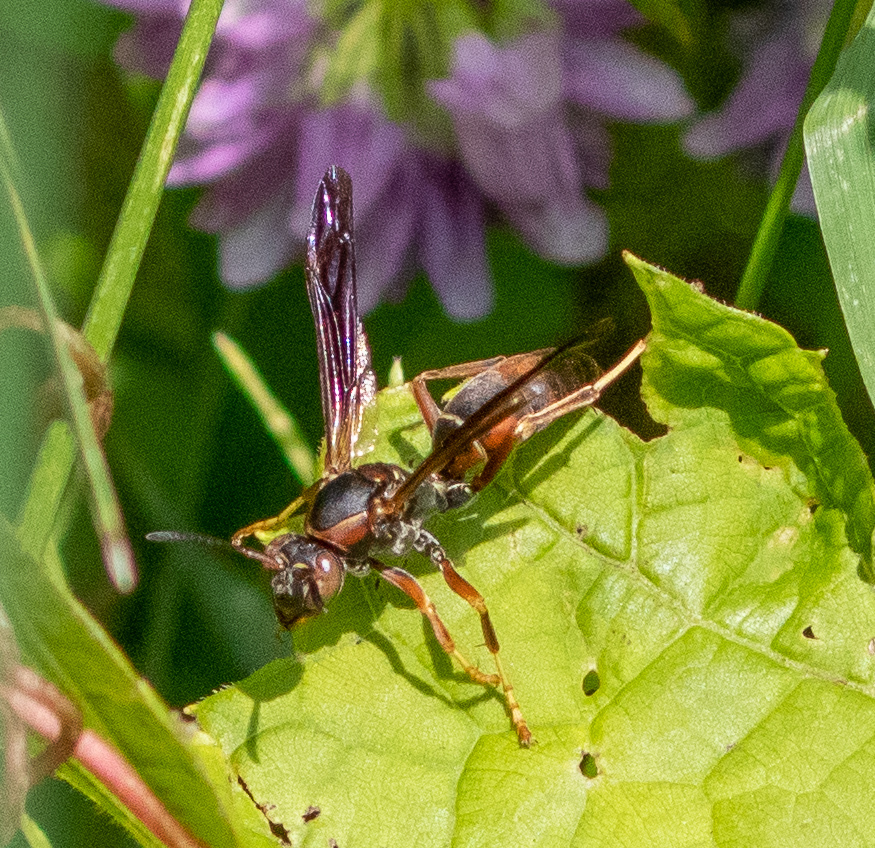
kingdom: Animalia
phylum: Arthropoda
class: Insecta
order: Hymenoptera
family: Eumenidae
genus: Polistes
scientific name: Polistes fuscatus
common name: Dark paper wasp
